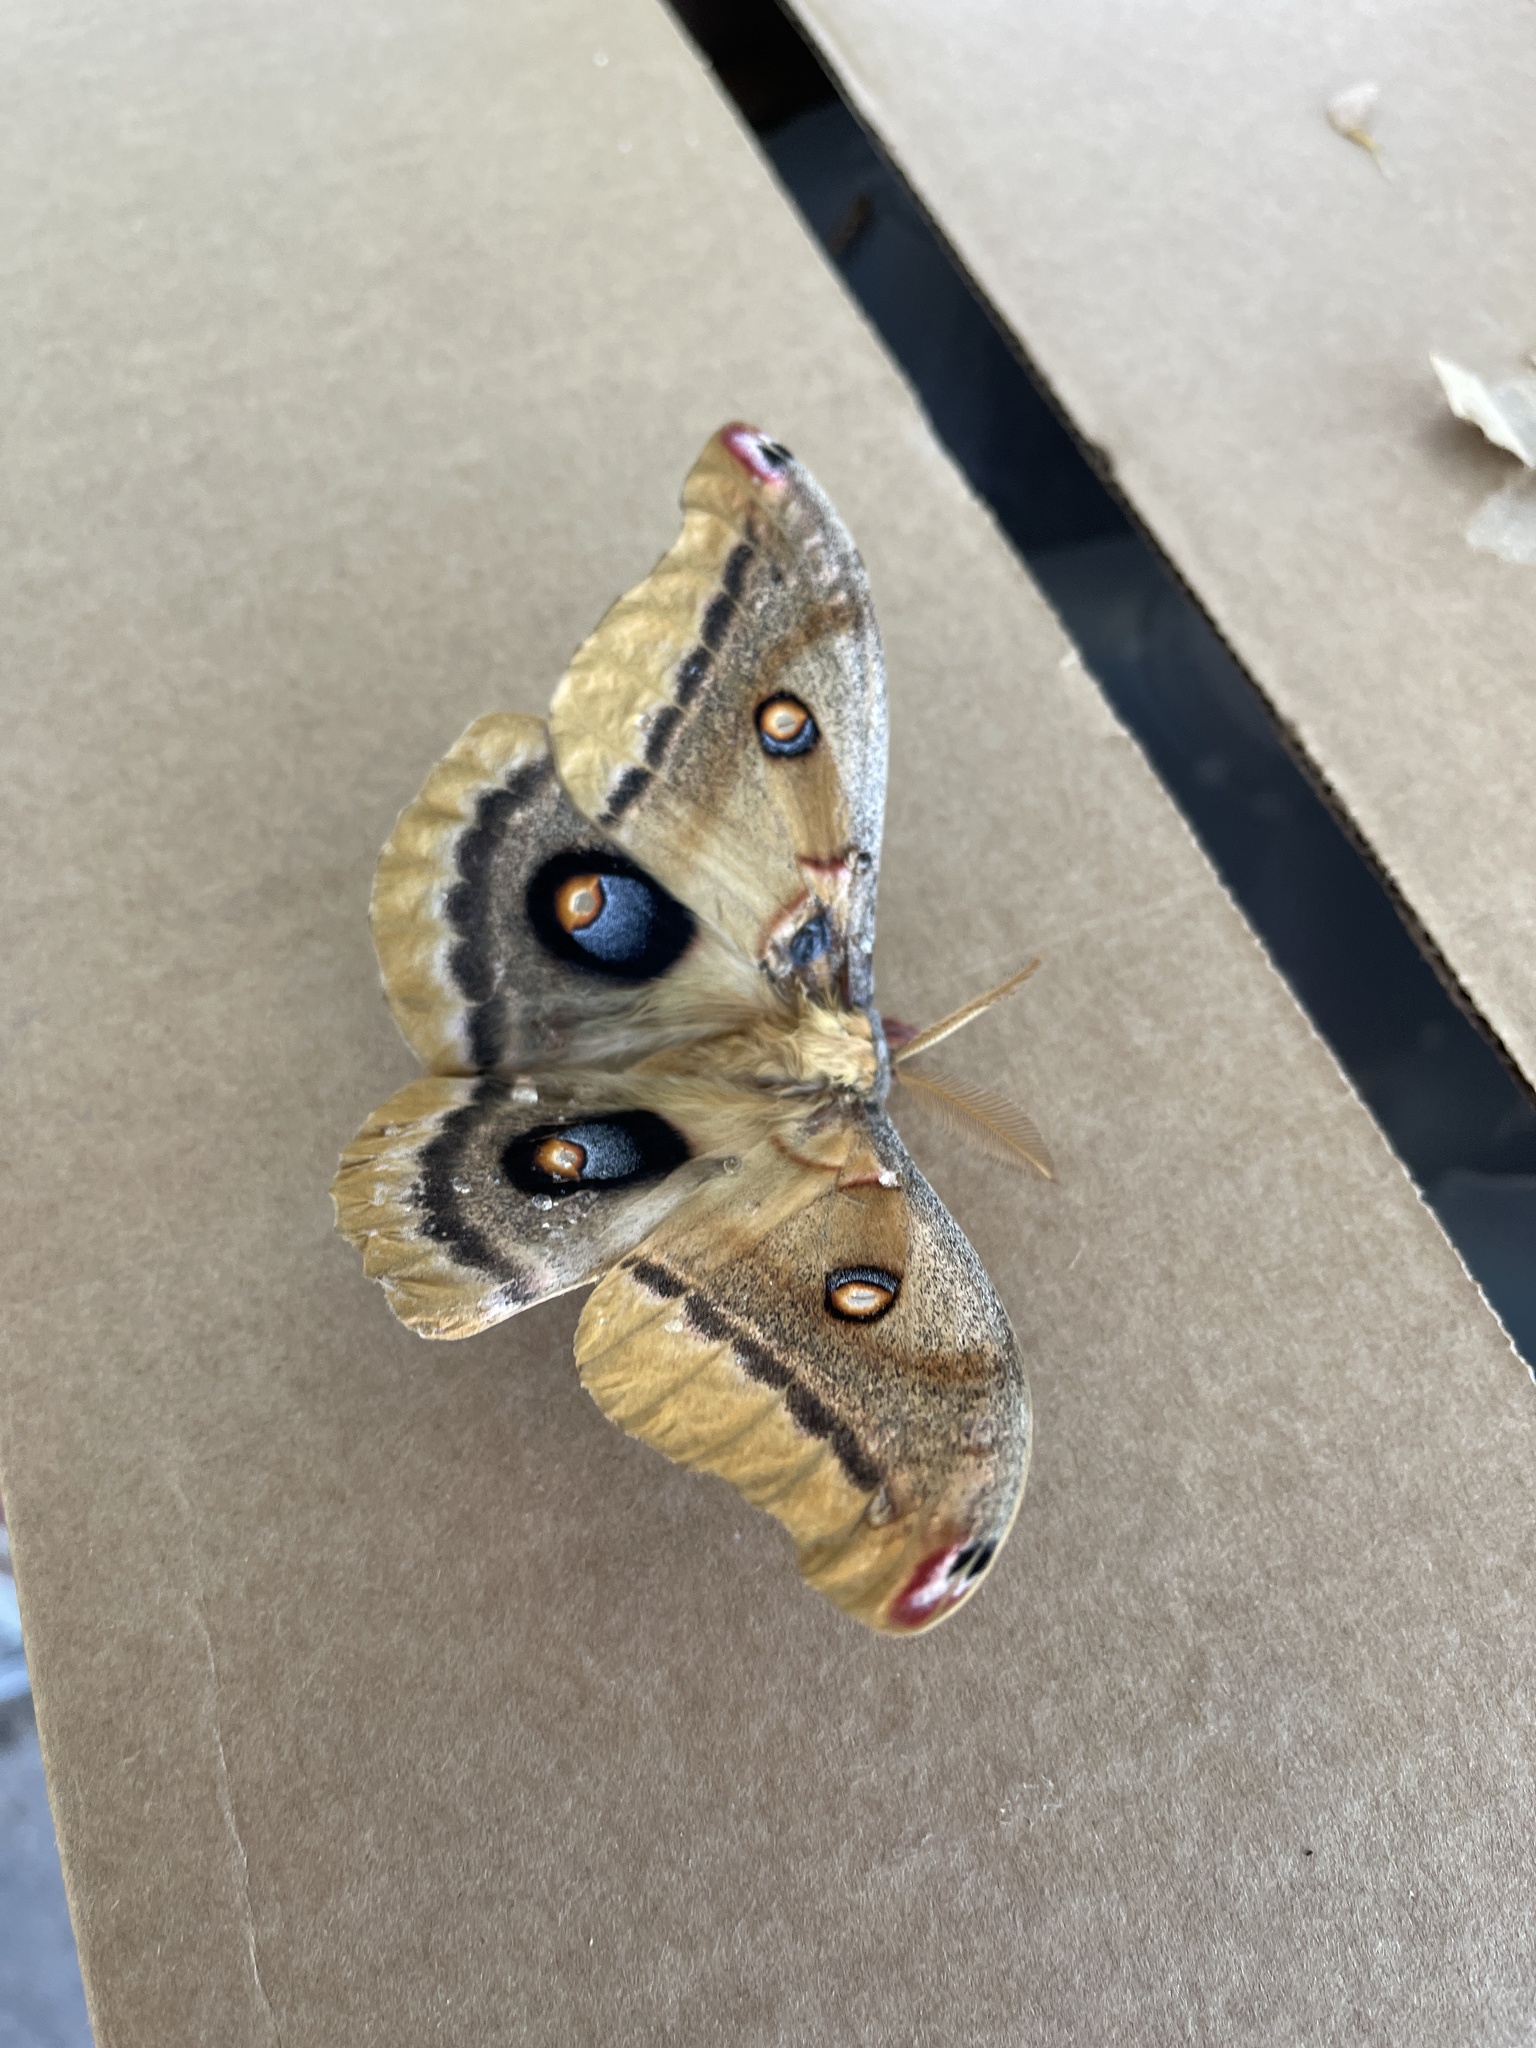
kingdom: Animalia
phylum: Arthropoda
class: Insecta
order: Lepidoptera
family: Saturniidae
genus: Antheraea
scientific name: Antheraea oculea
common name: Arizona polyphemus moth
